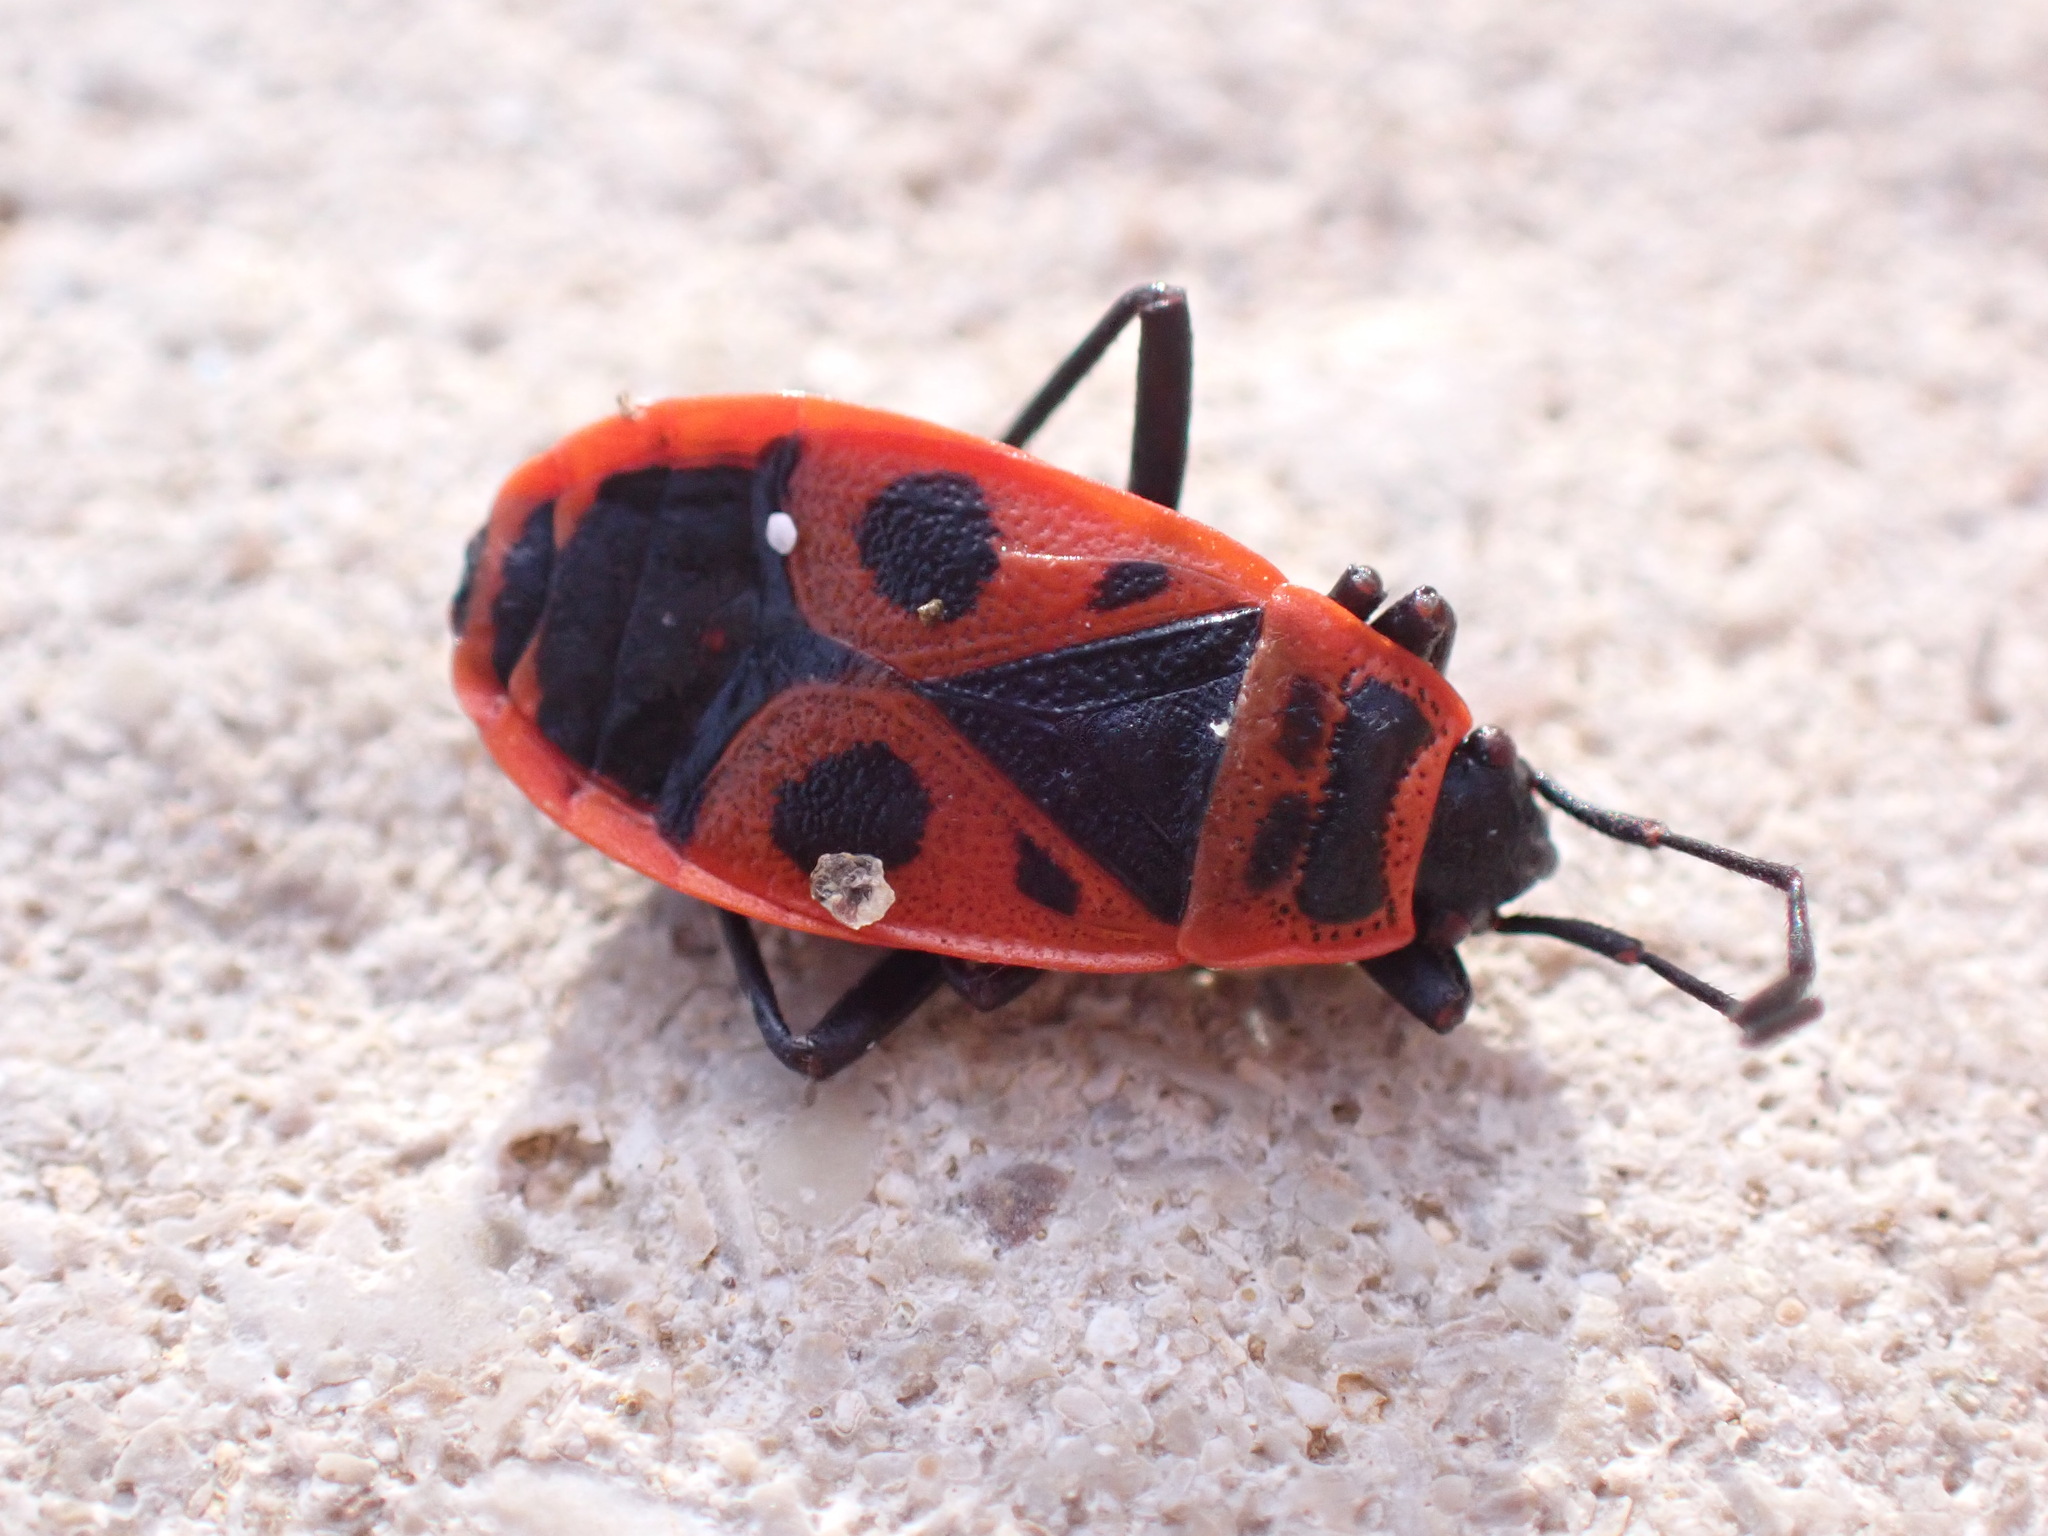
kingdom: Animalia
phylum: Arthropoda
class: Insecta
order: Hemiptera
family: Pyrrhocoridae
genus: Pyrrhocoris
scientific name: Pyrrhocoris apterus
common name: Firebug
